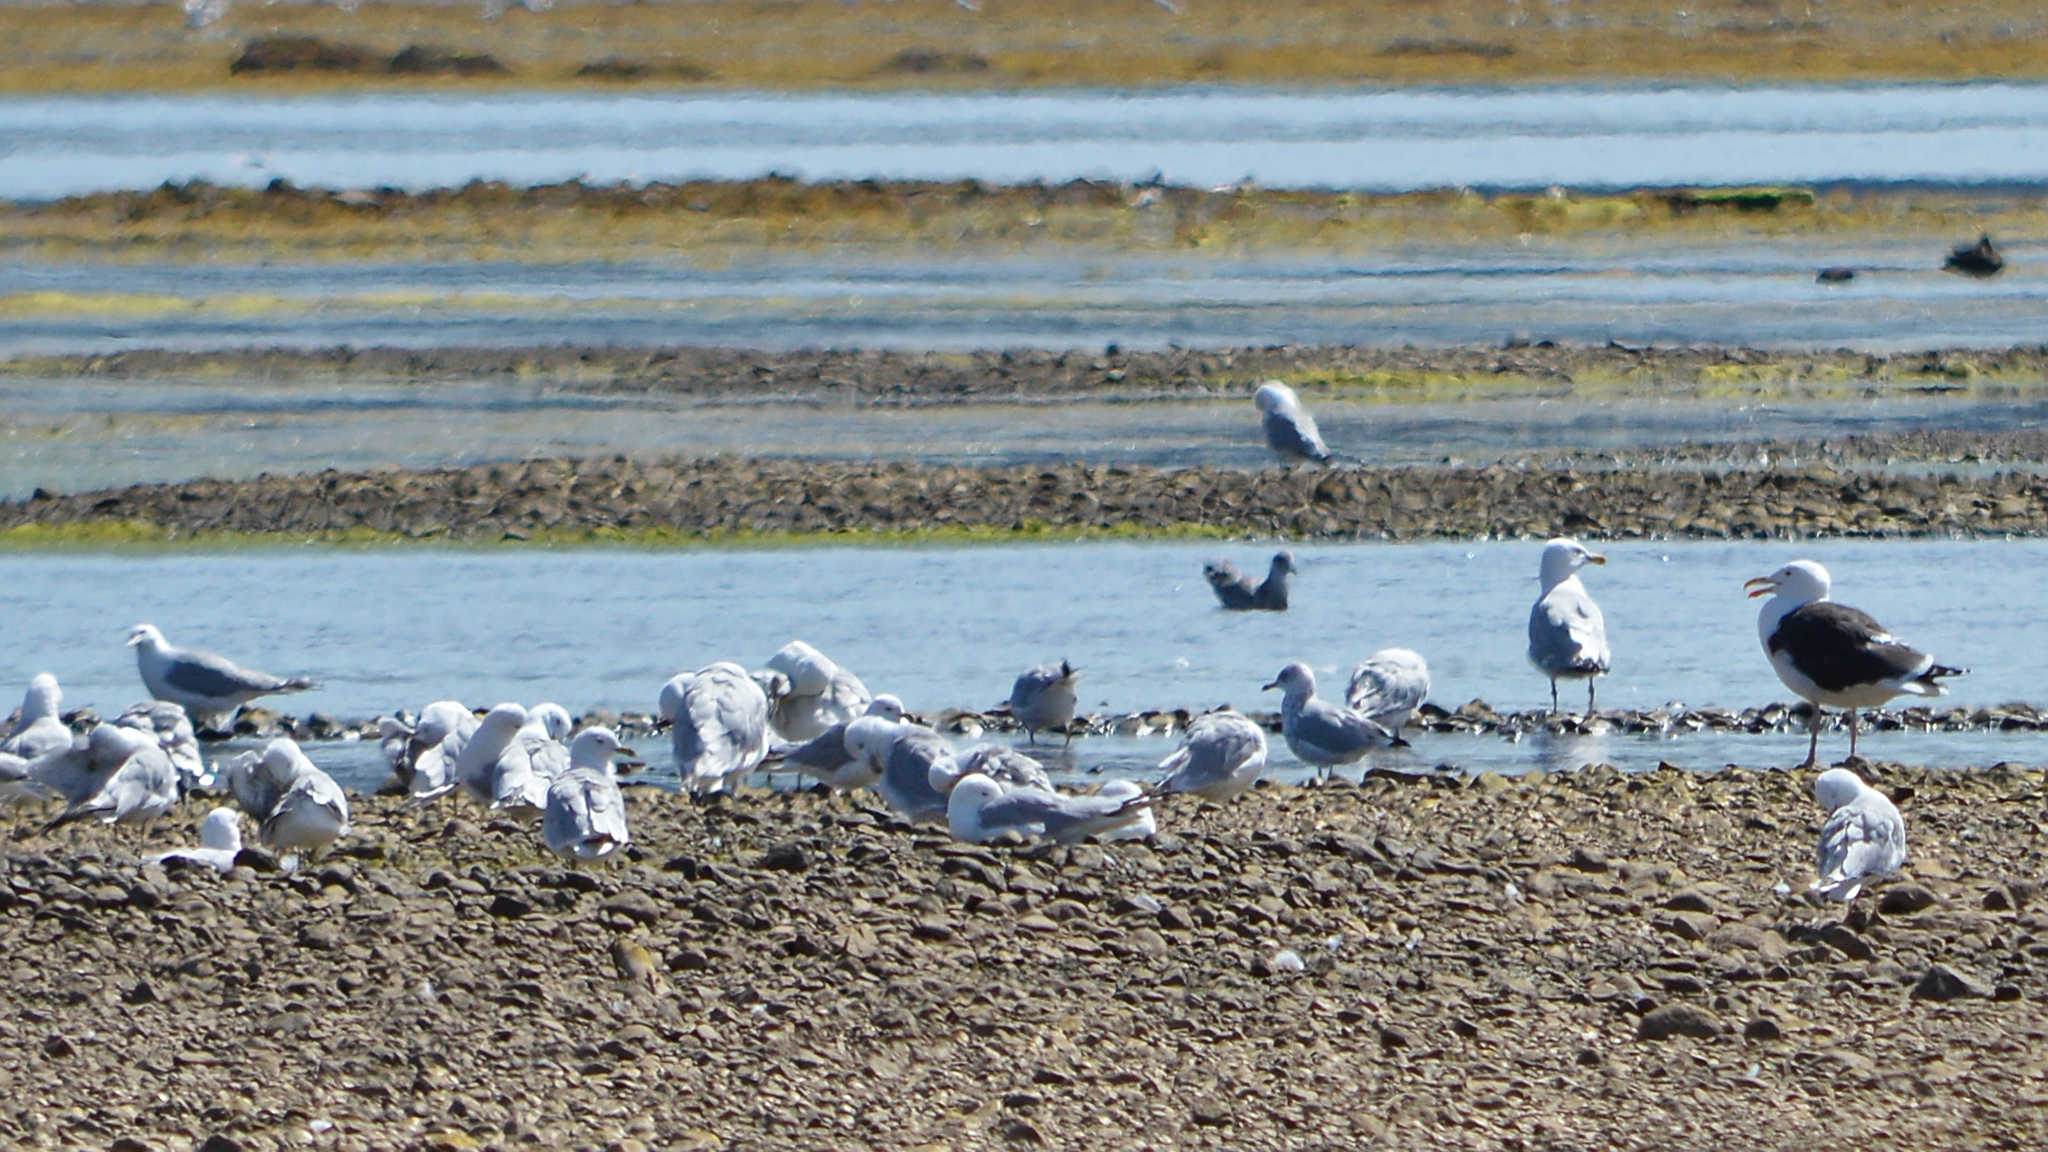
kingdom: Animalia
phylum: Chordata
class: Aves
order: Charadriiformes
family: Laridae
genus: Larus
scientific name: Larus argentatus
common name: Herring gull
